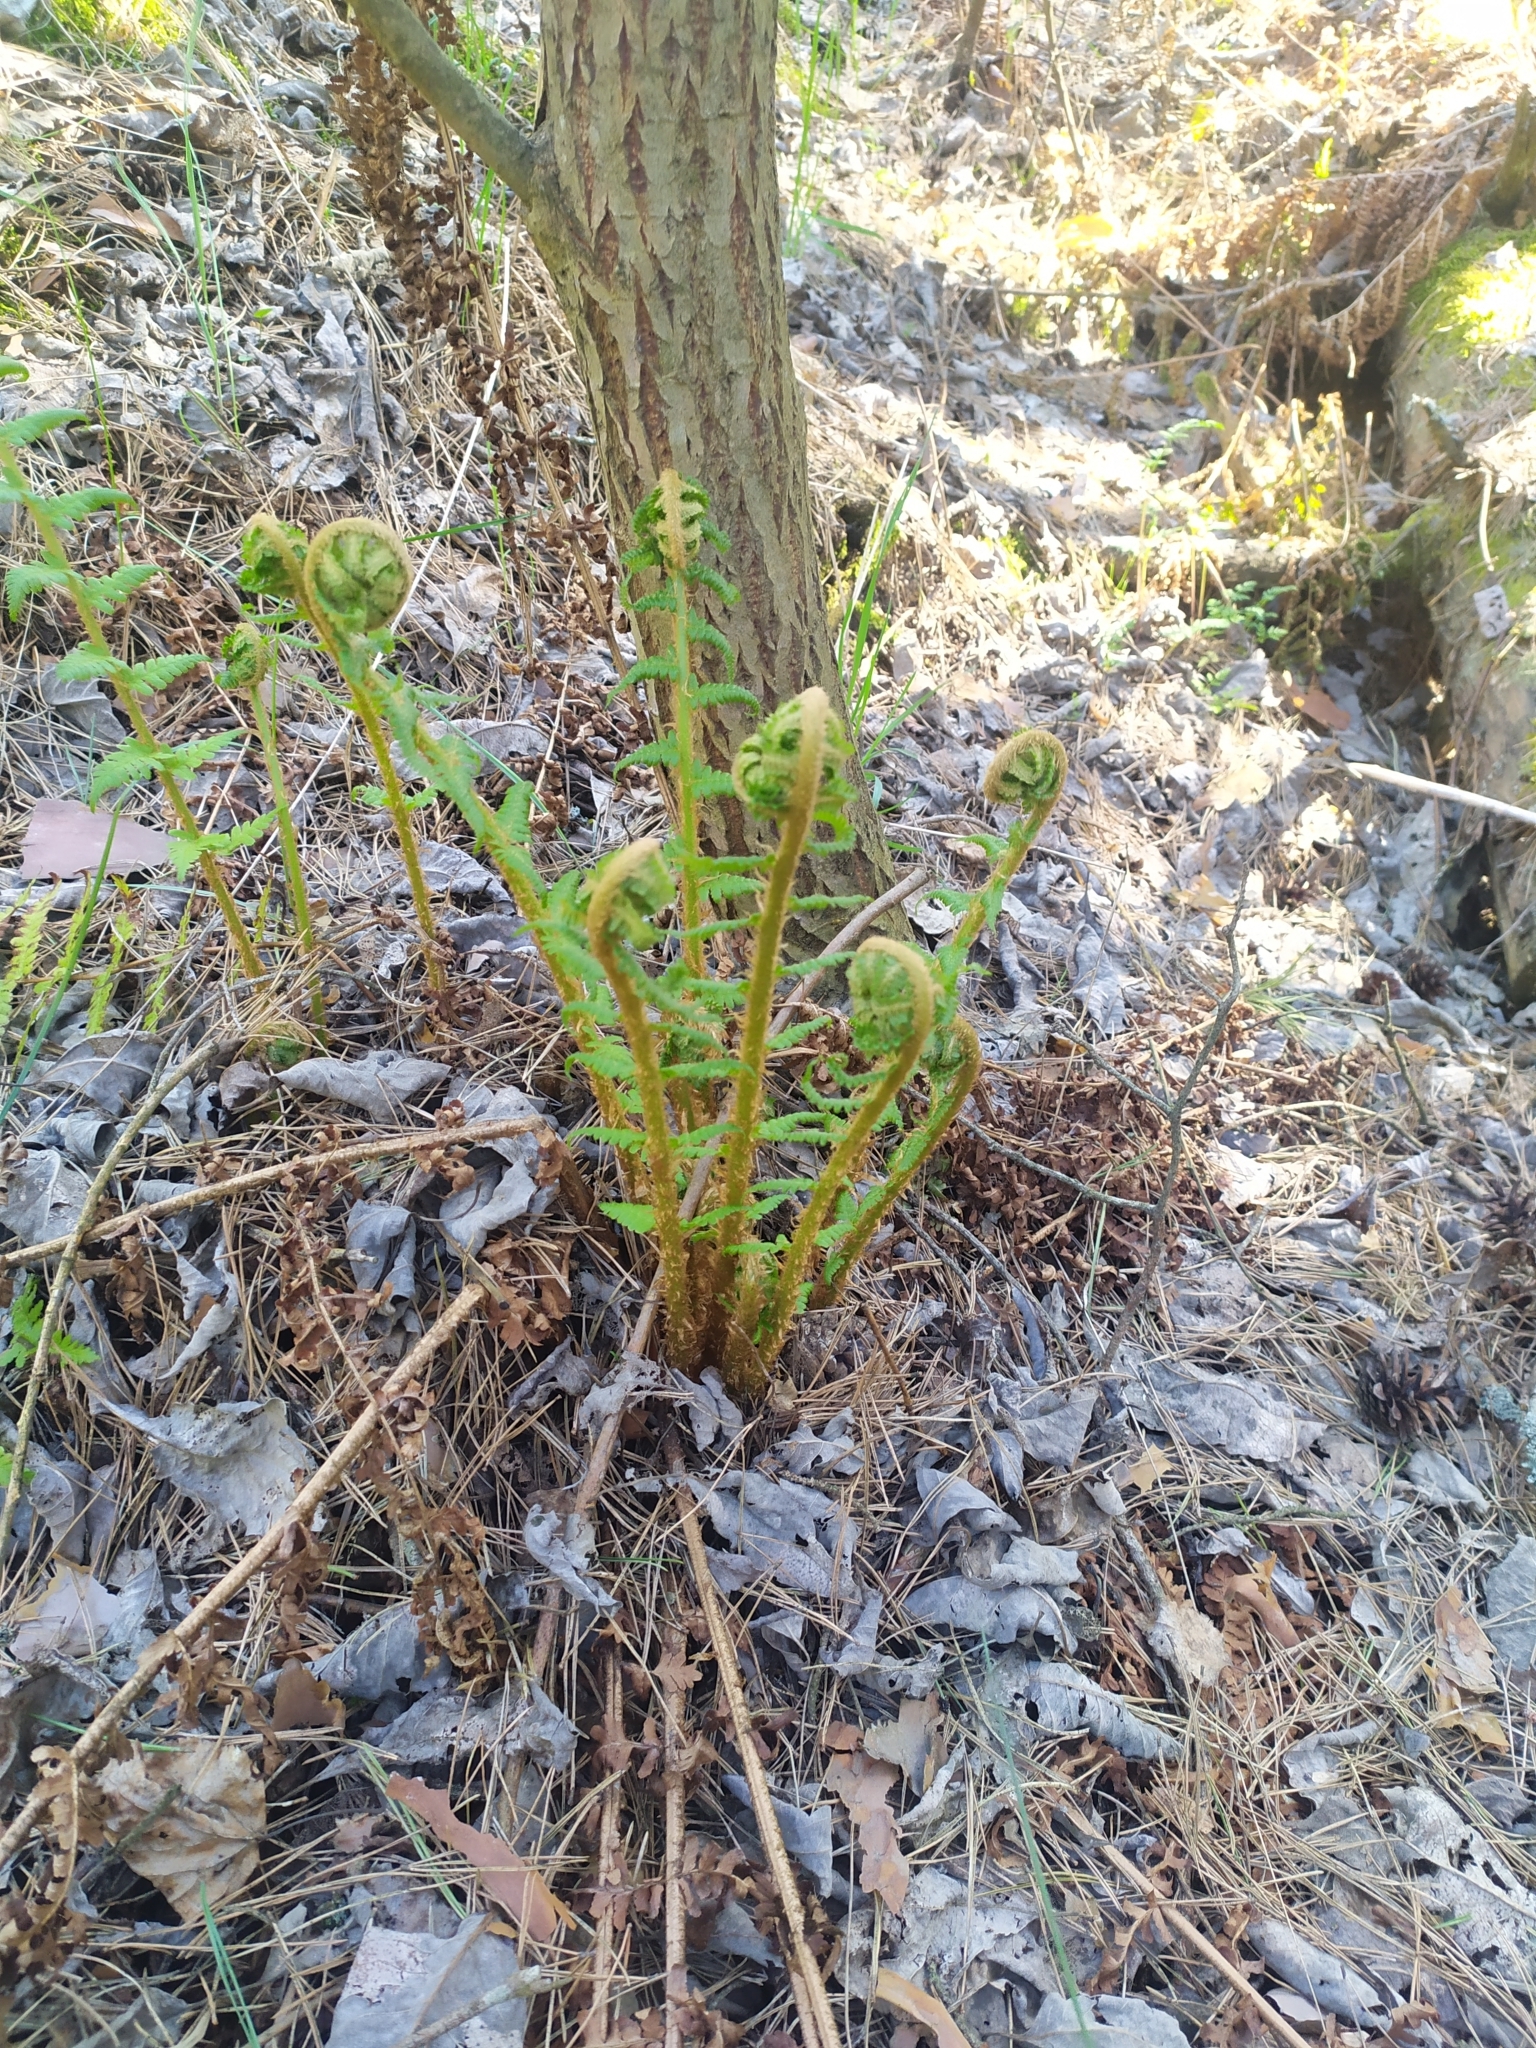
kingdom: Plantae
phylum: Tracheophyta
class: Polypodiopsida
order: Polypodiales
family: Dryopteridaceae
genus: Dryopteris
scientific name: Dryopteris filix-mas
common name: Male fern
